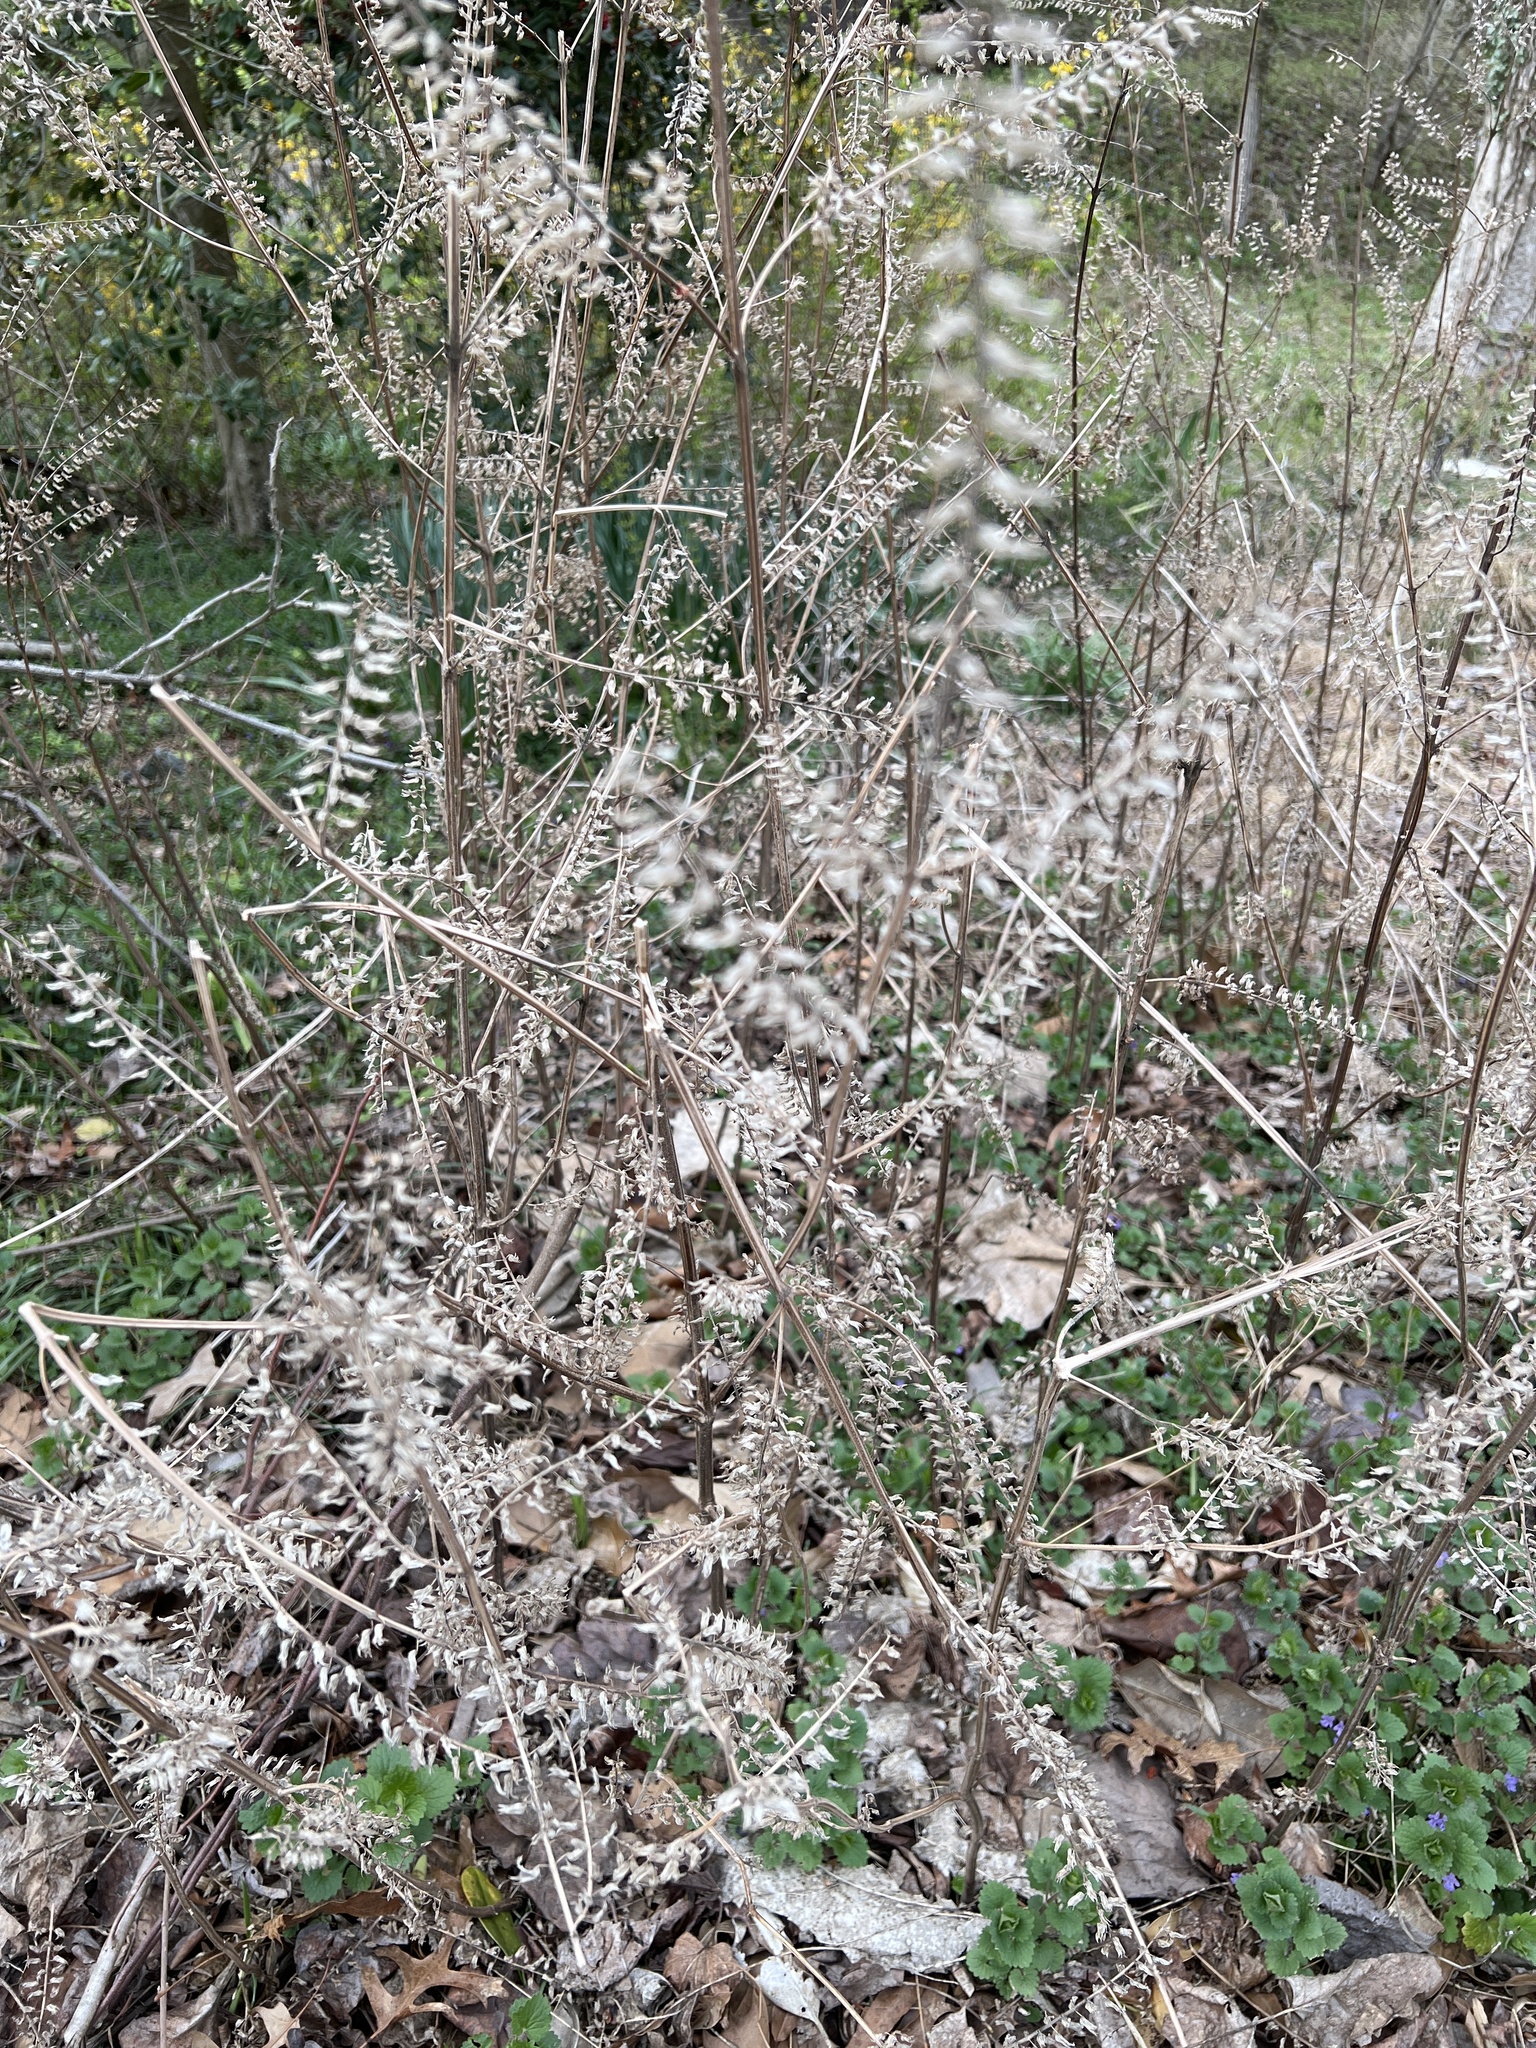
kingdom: Plantae
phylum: Tracheophyta
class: Magnoliopsida
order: Lamiales
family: Lamiaceae
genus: Perilla
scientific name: Perilla frutescens
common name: Perilla
